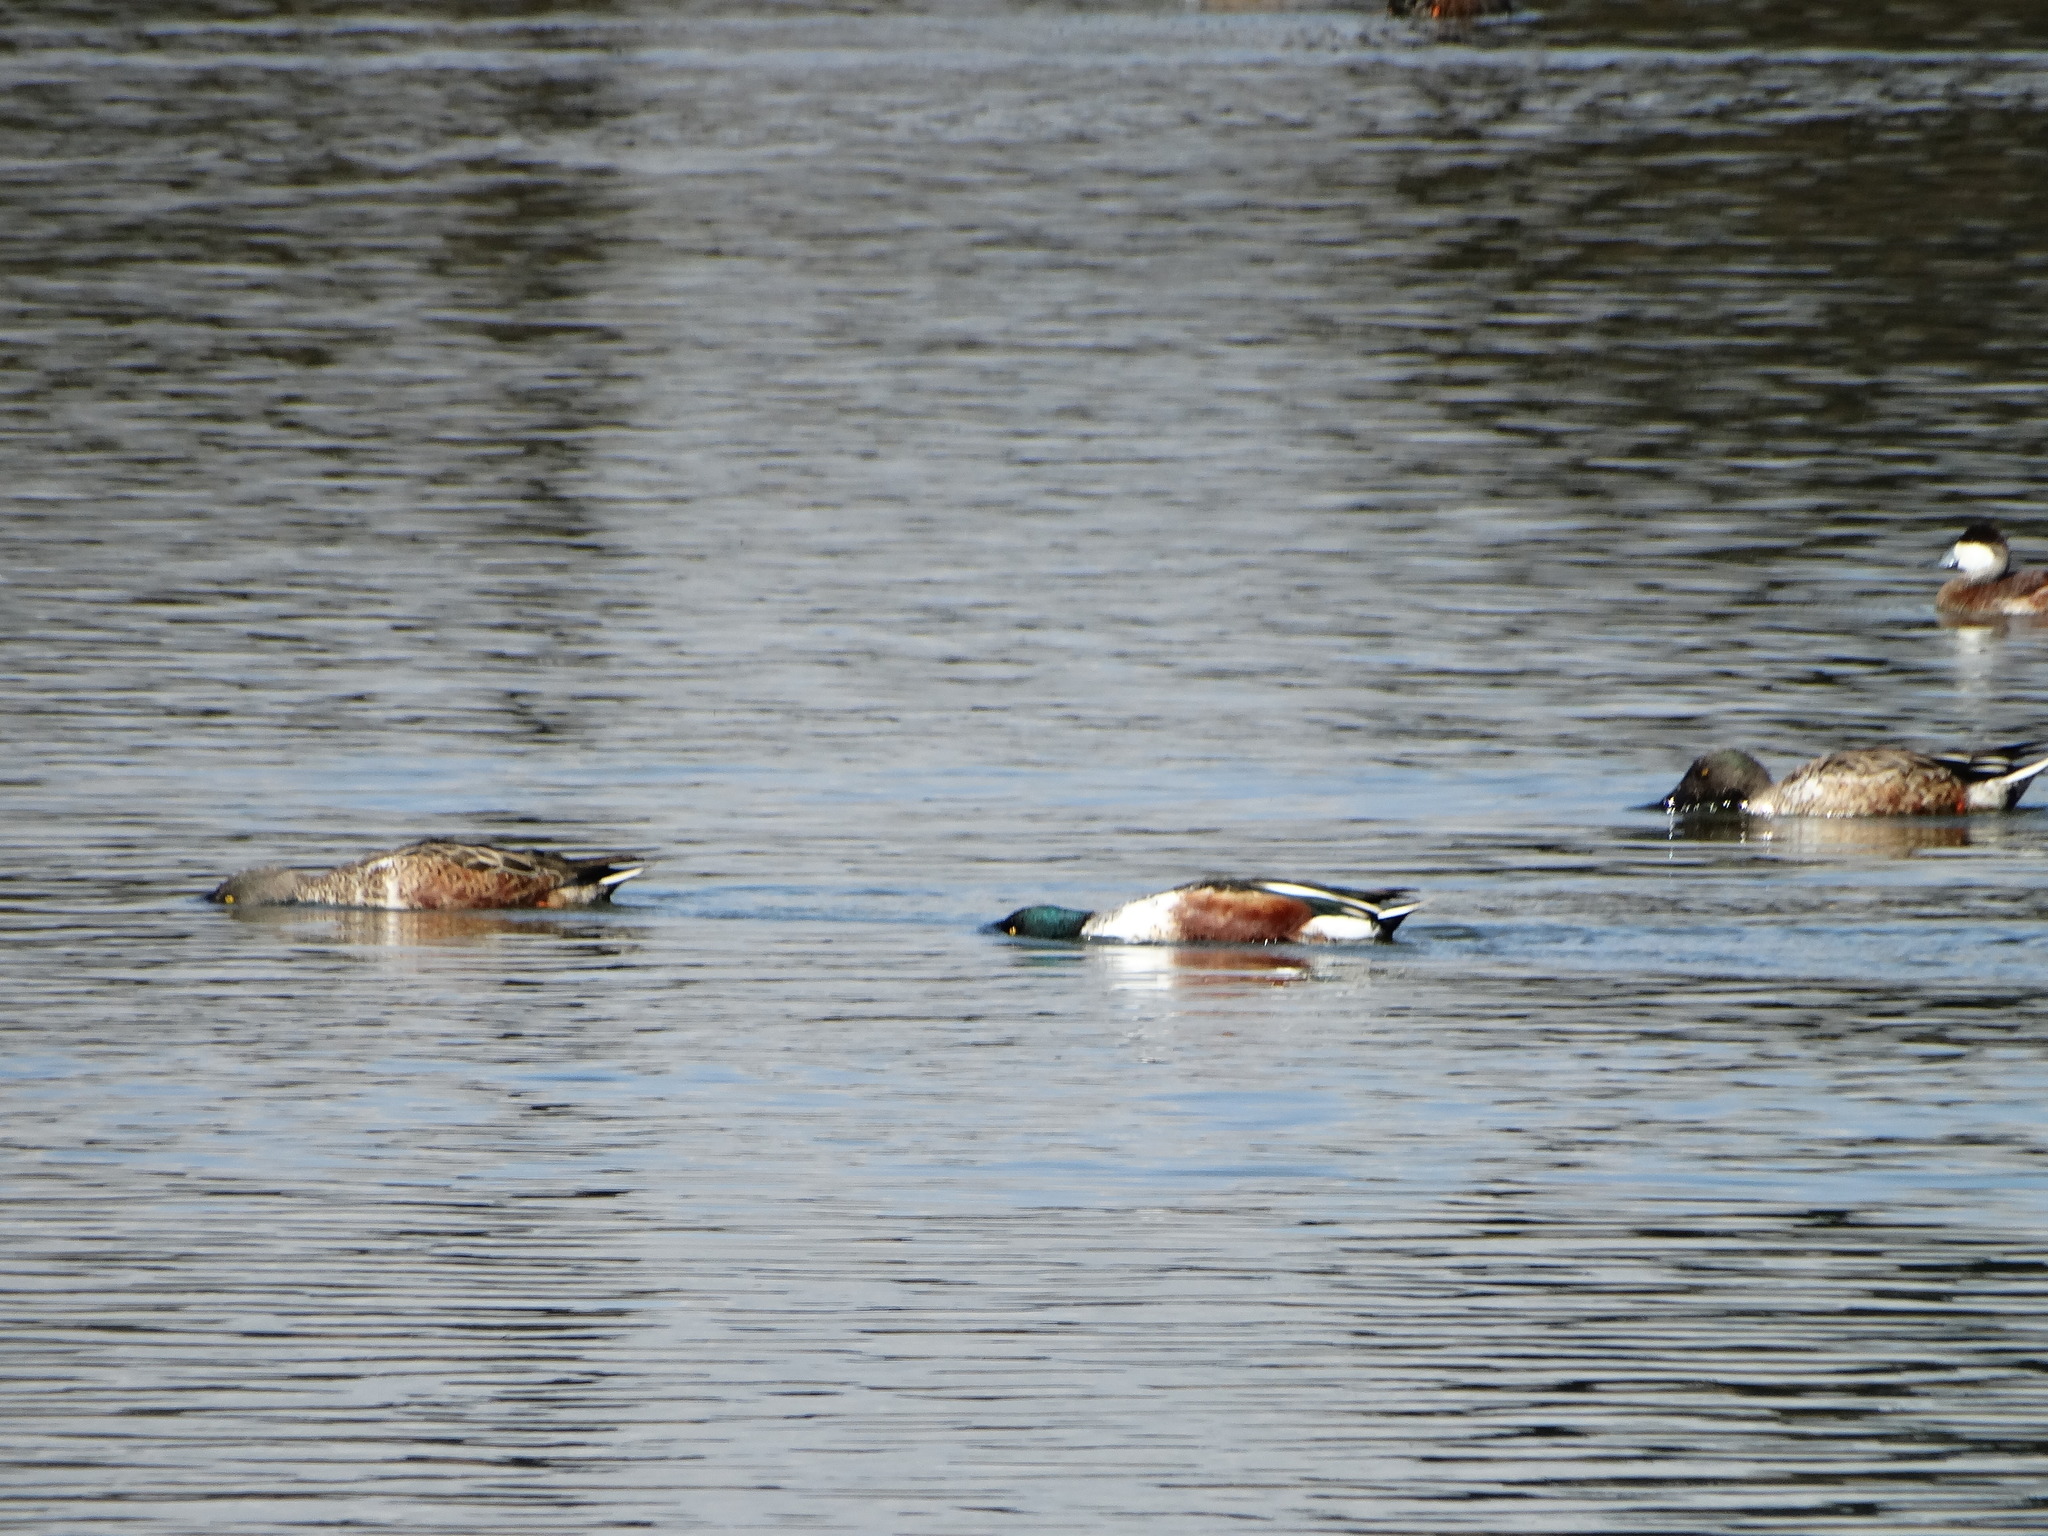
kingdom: Animalia
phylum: Chordata
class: Aves
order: Anseriformes
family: Anatidae
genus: Spatula
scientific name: Spatula clypeata
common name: Northern shoveler
